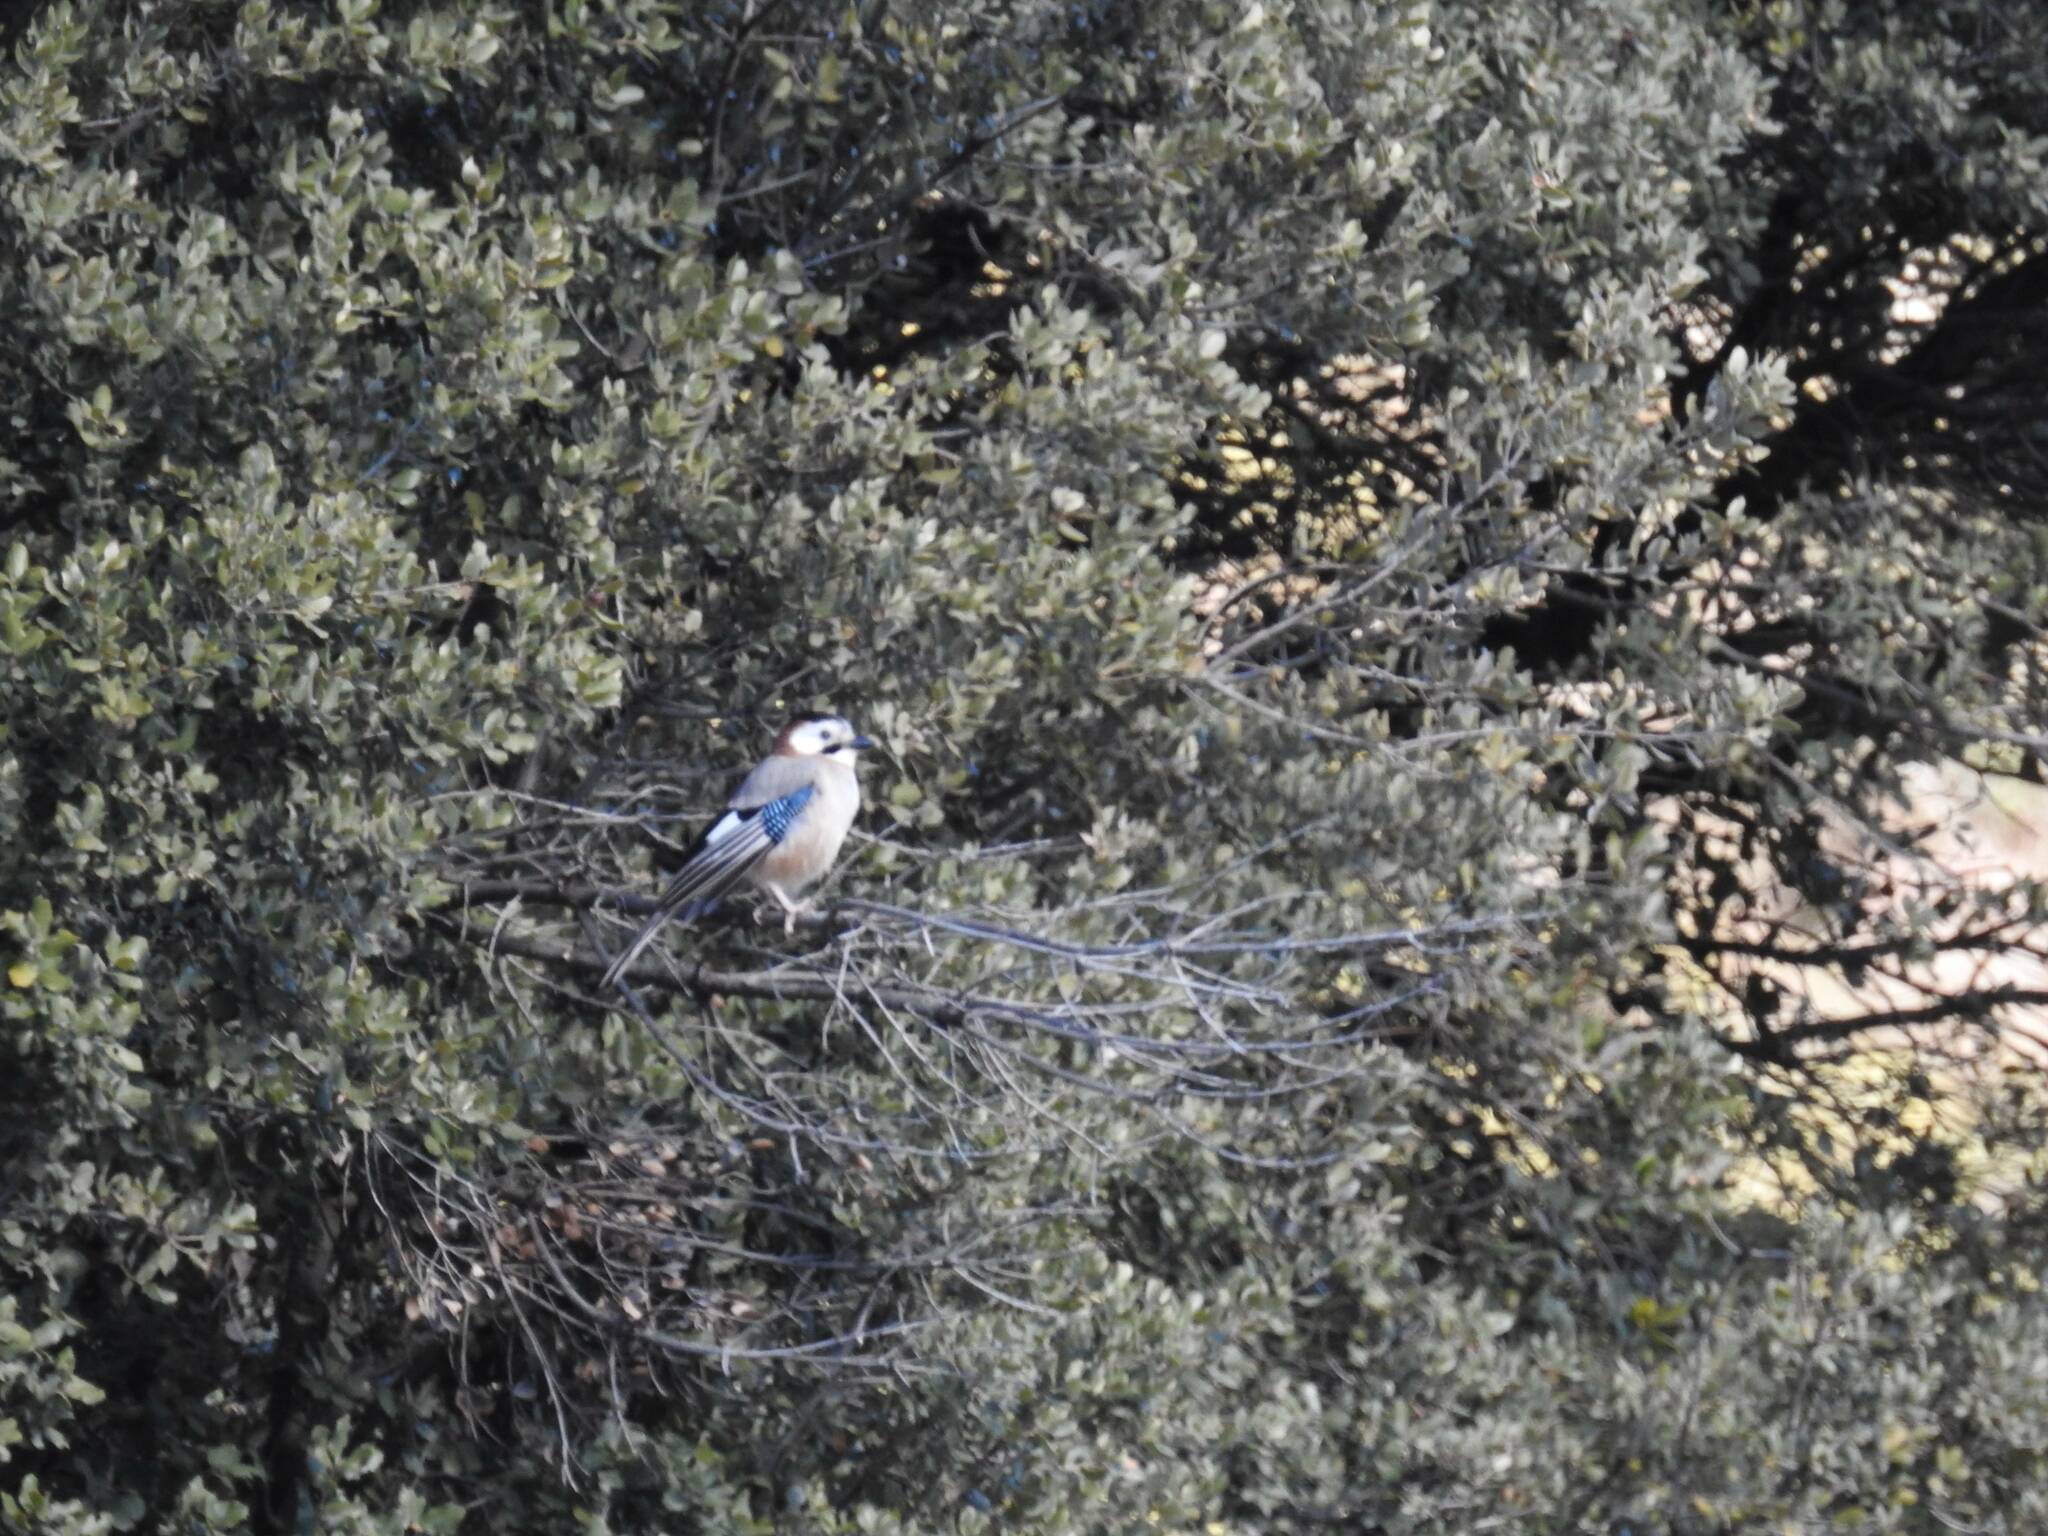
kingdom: Animalia
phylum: Chordata
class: Aves
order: Passeriformes
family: Corvidae
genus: Garrulus
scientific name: Garrulus glandarius
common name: Eurasian jay
